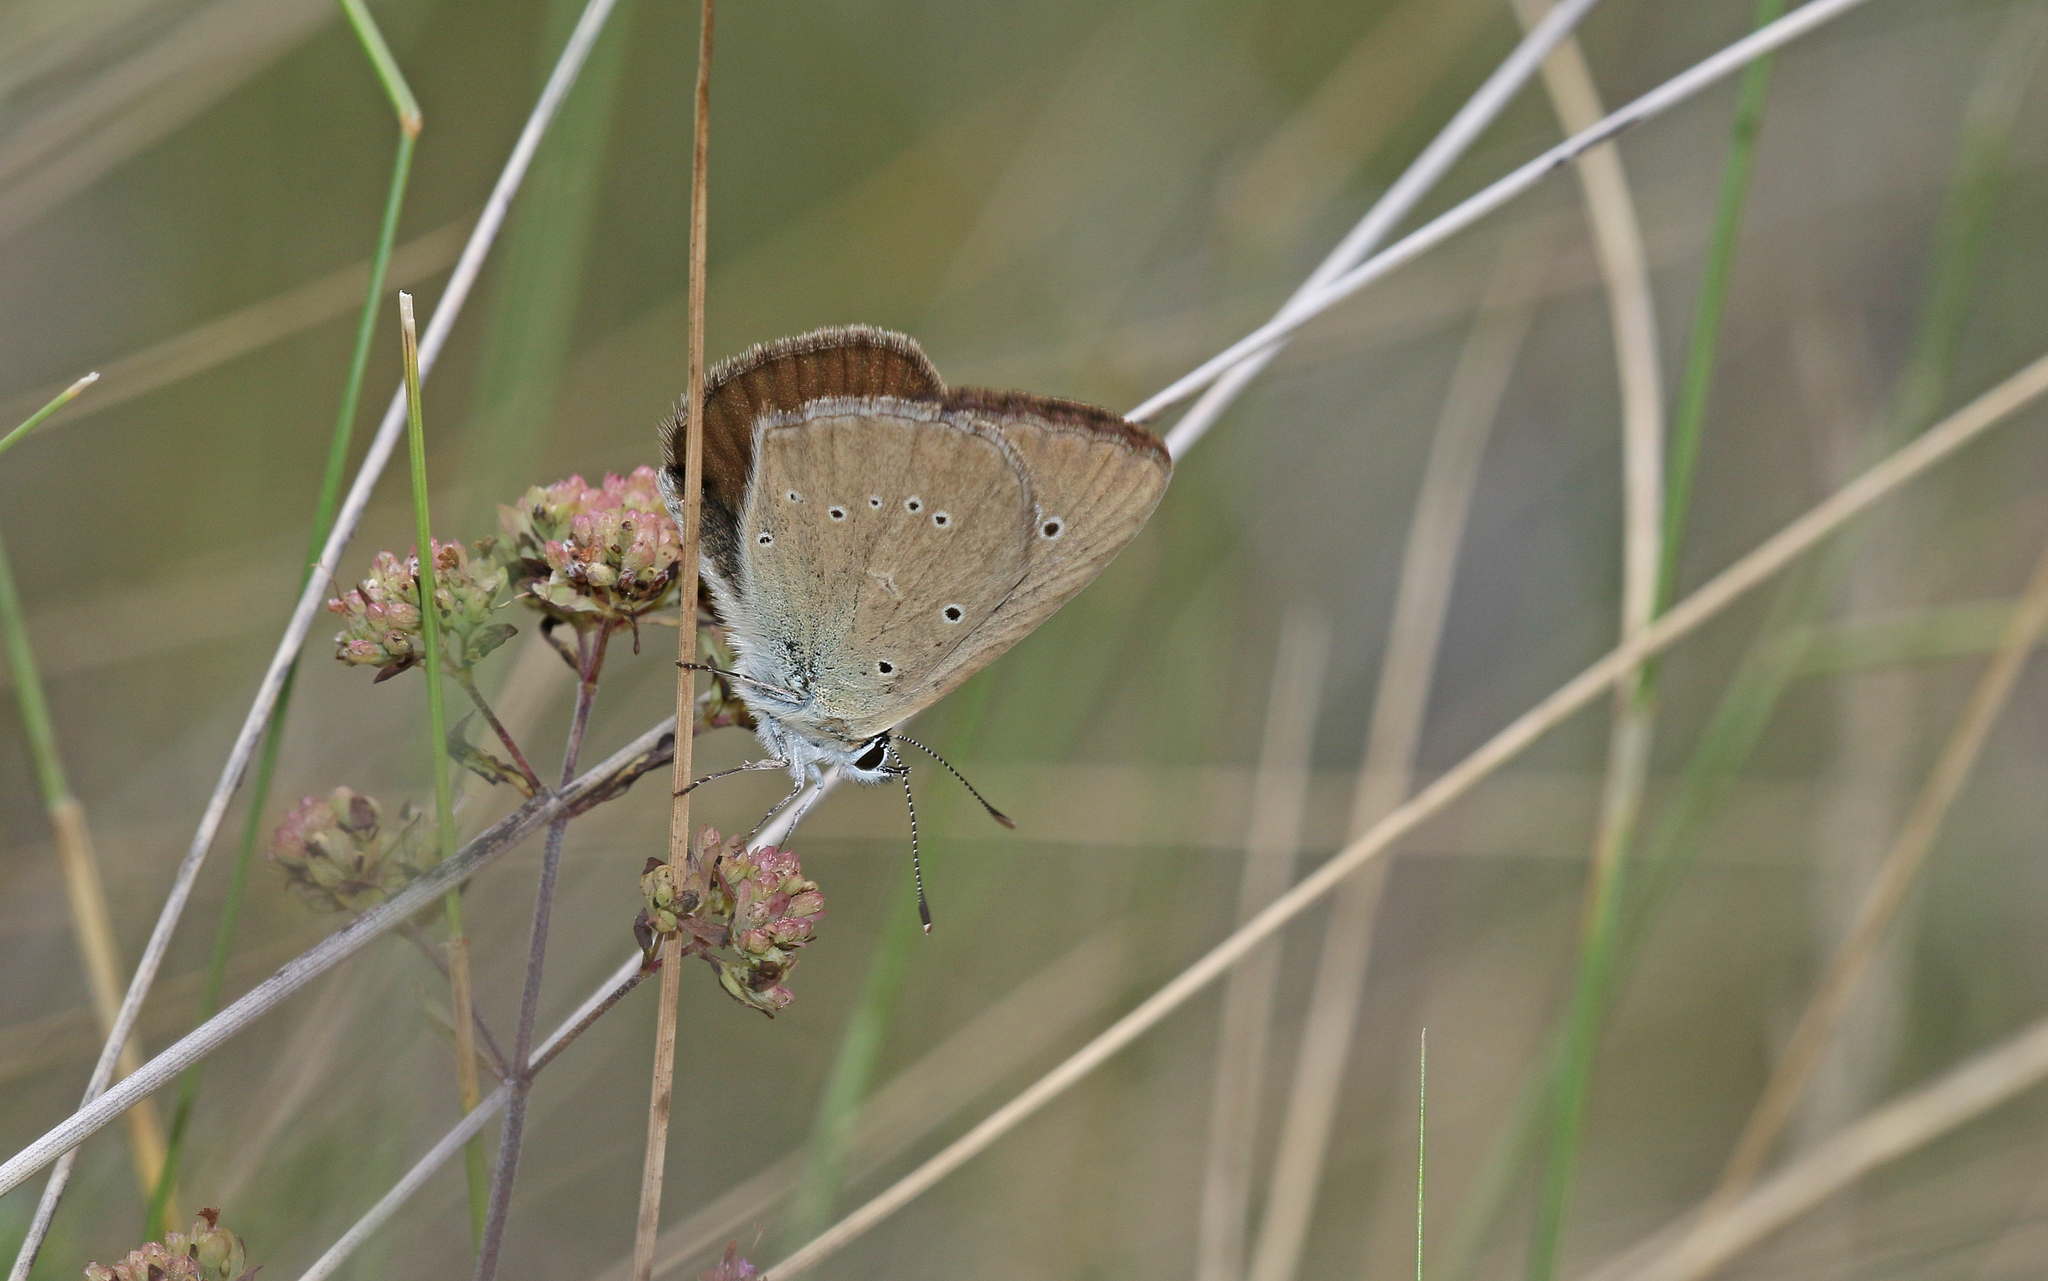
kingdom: Animalia
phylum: Arthropoda
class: Insecta
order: Lepidoptera
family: Lycaenidae
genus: Agrodiaetus
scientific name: Agrodiaetus humedasae
